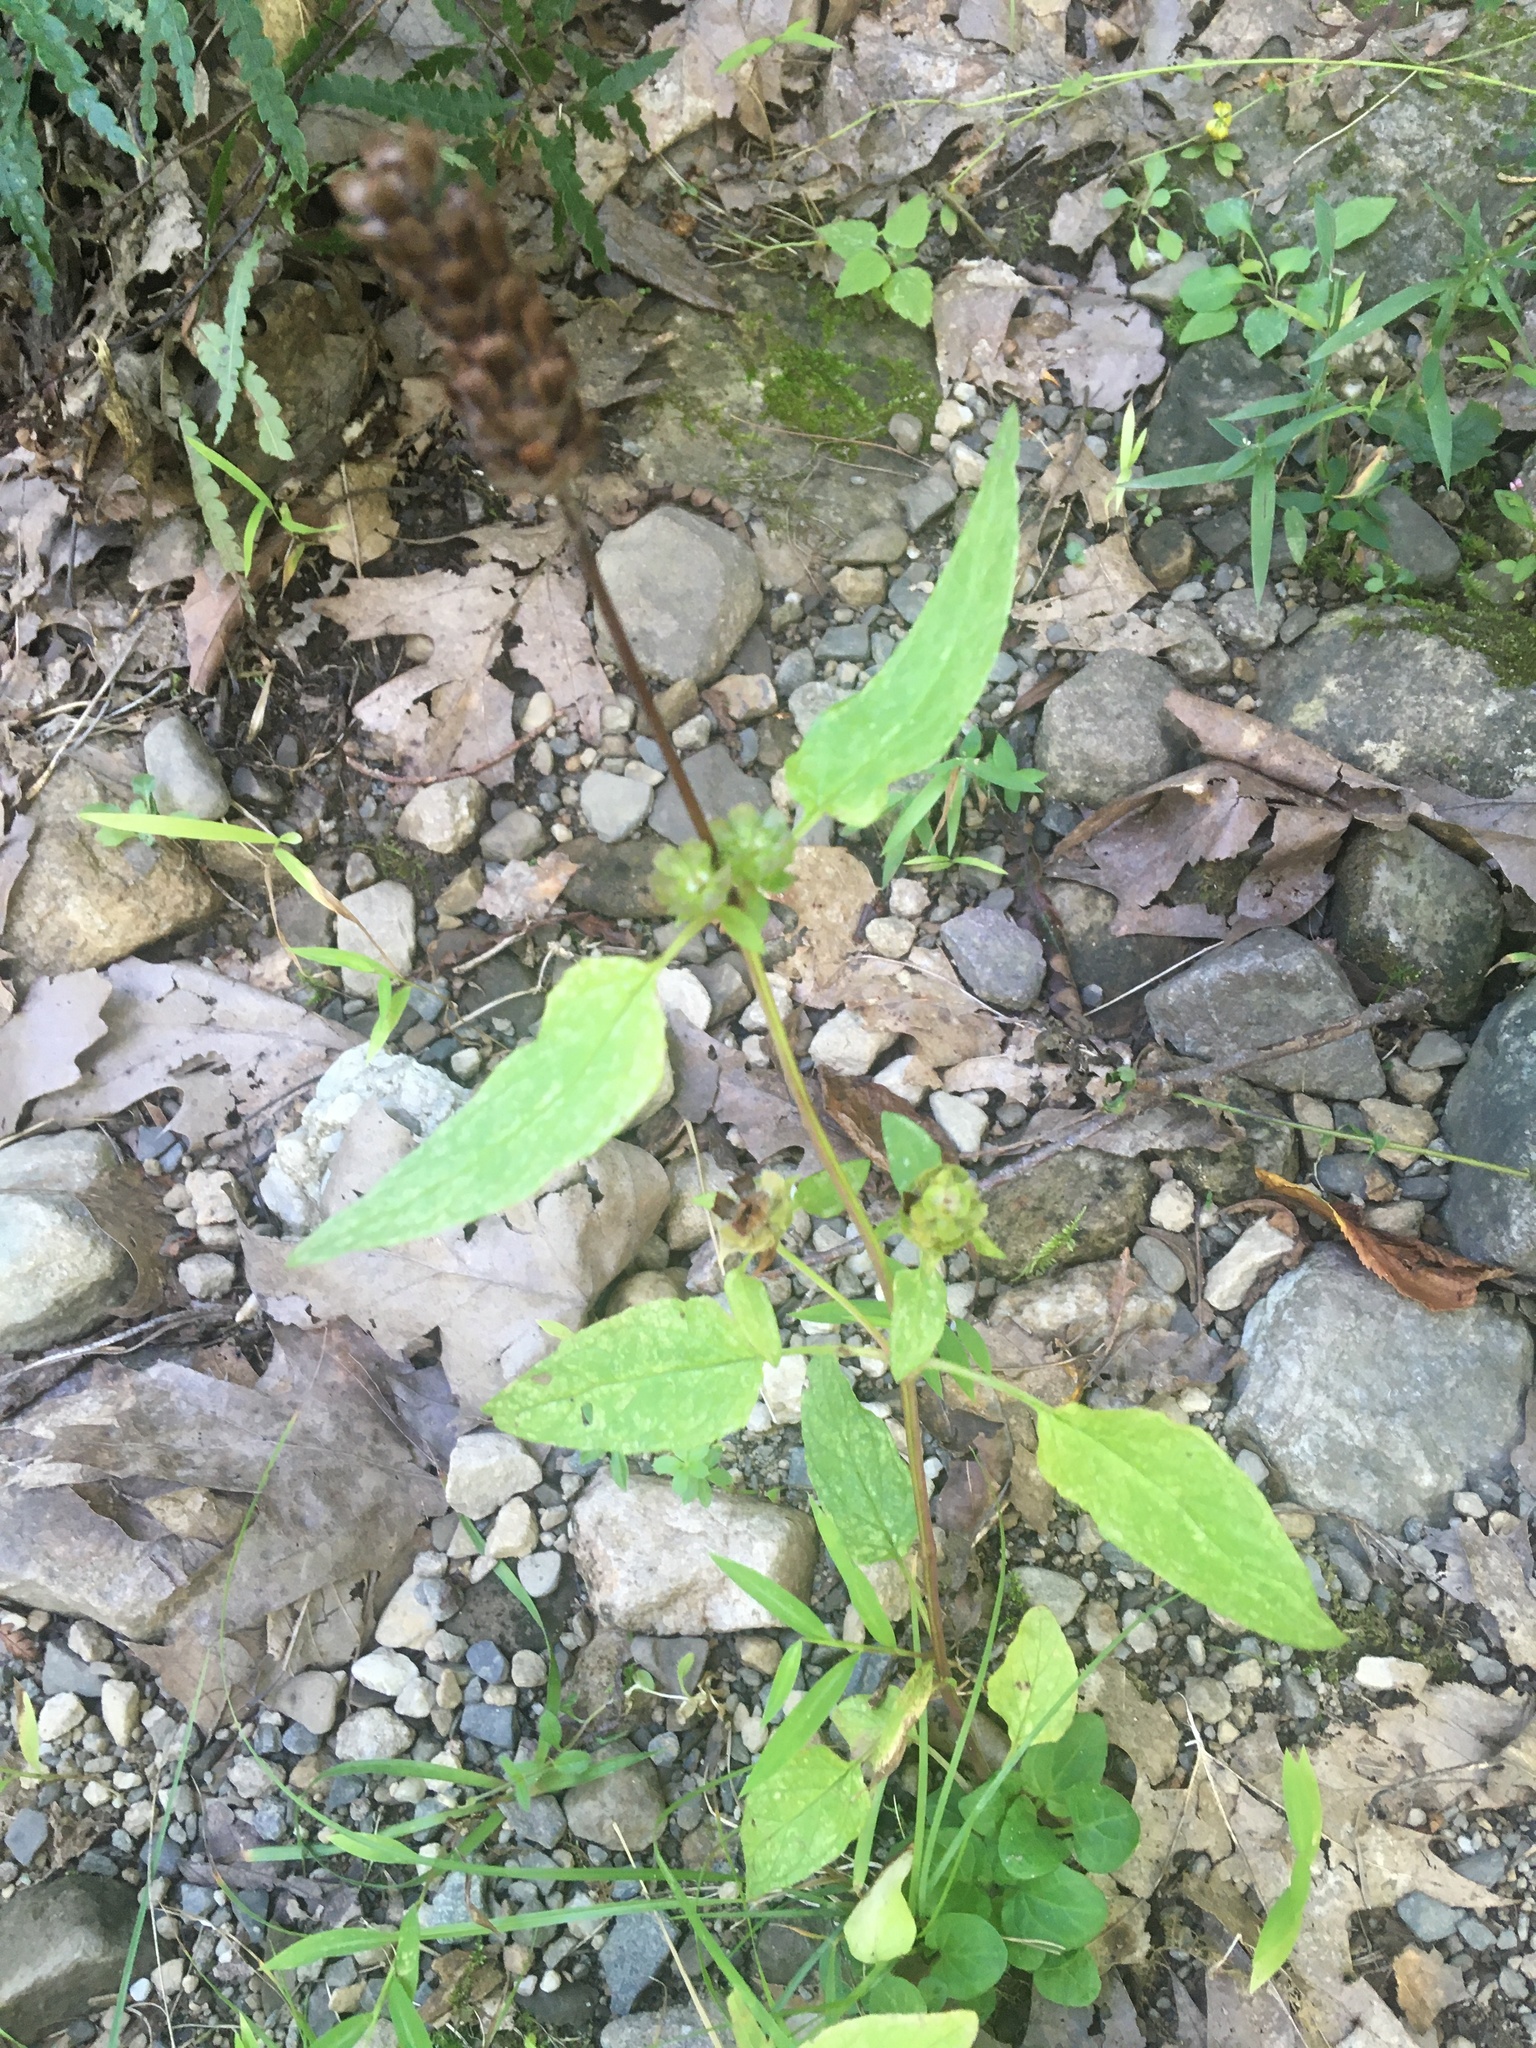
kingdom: Plantae
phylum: Tracheophyta
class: Magnoliopsida
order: Lamiales
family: Lamiaceae
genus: Prunella
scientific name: Prunella vulgaris
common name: Heal-all
